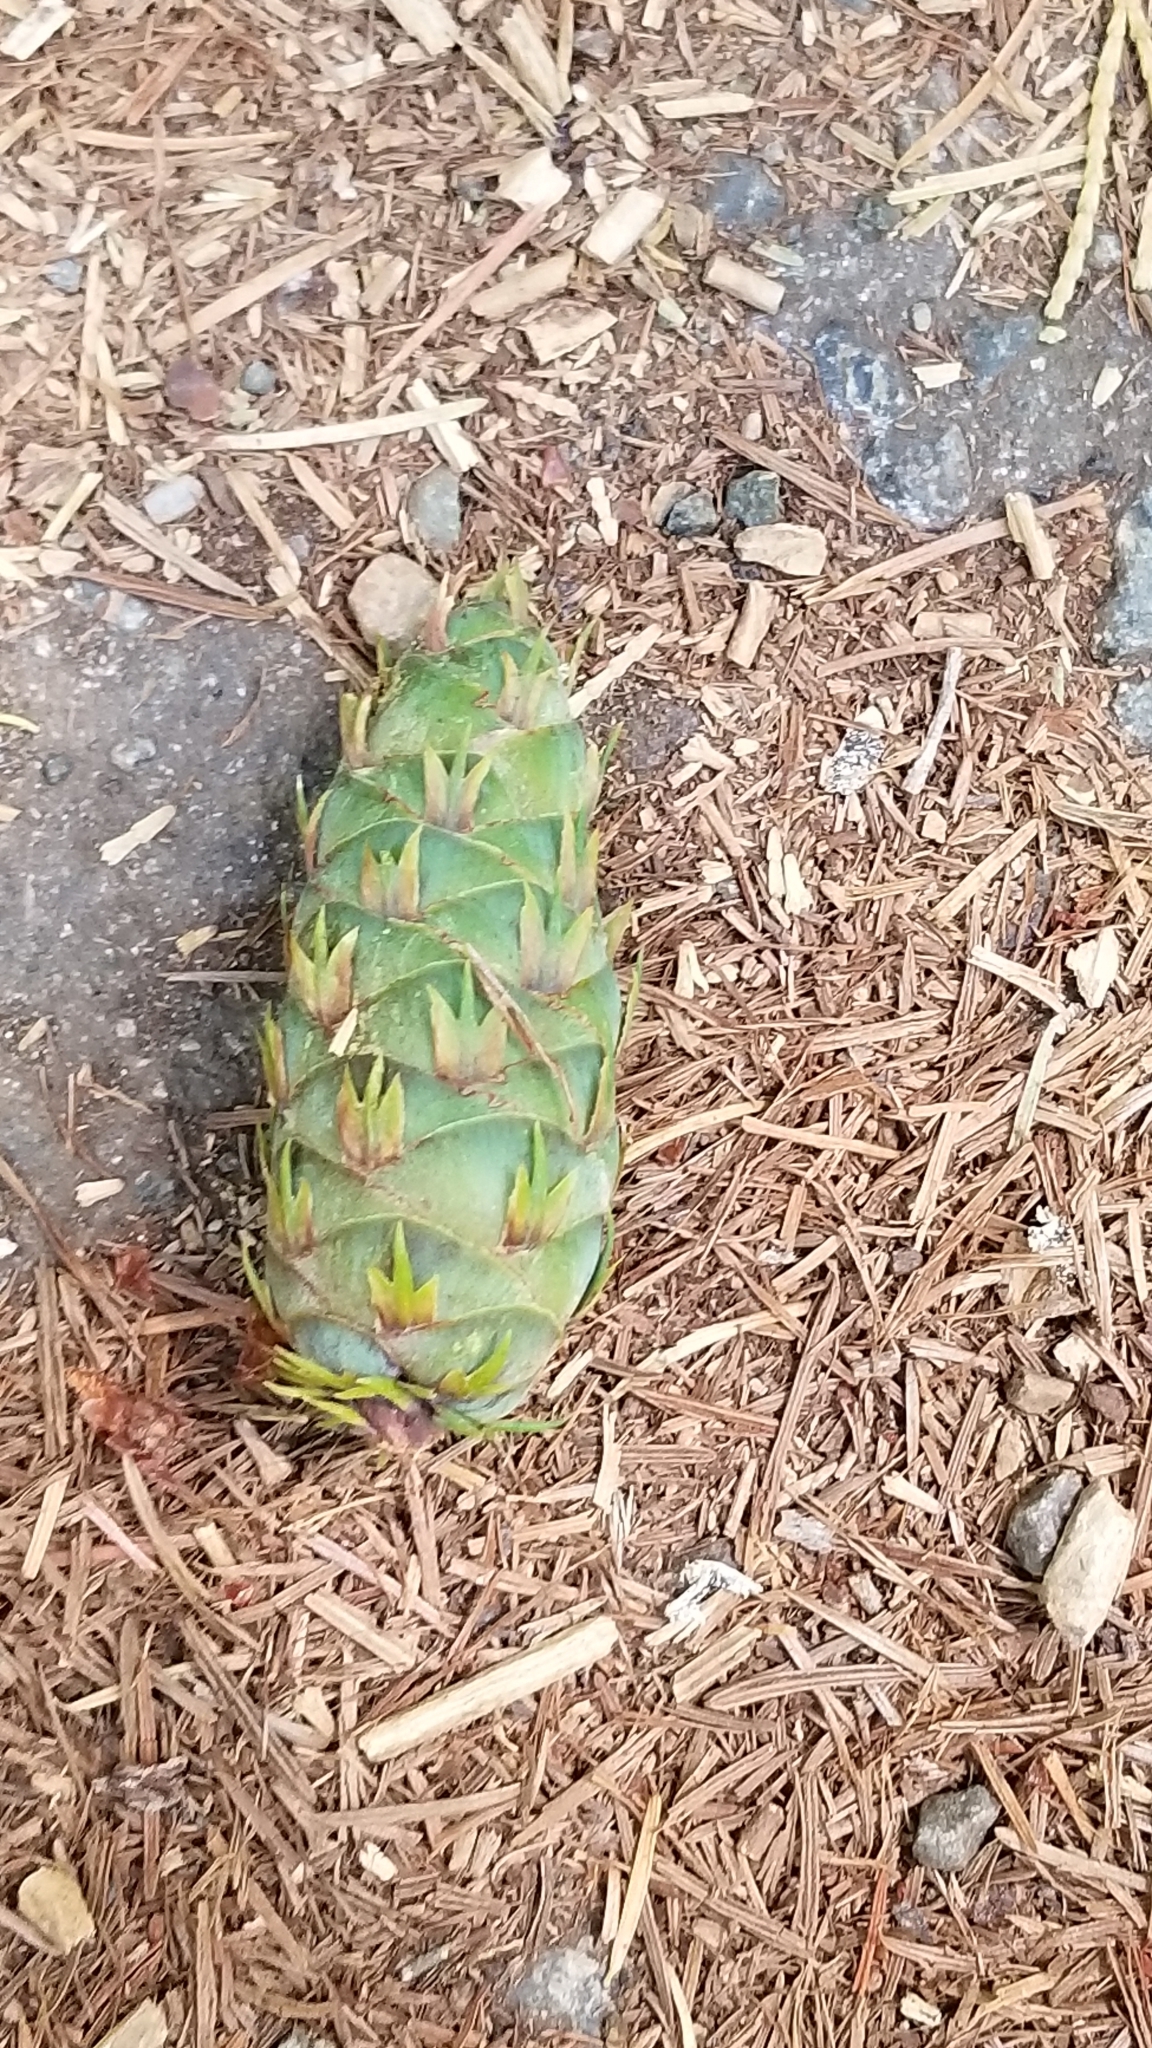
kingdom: Plantae
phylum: Tracheophyta
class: Pinopsida
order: Pinales
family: Pinaceae
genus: Pseudotsuga
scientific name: Pseudotsuga menziesii
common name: Douglas fir
